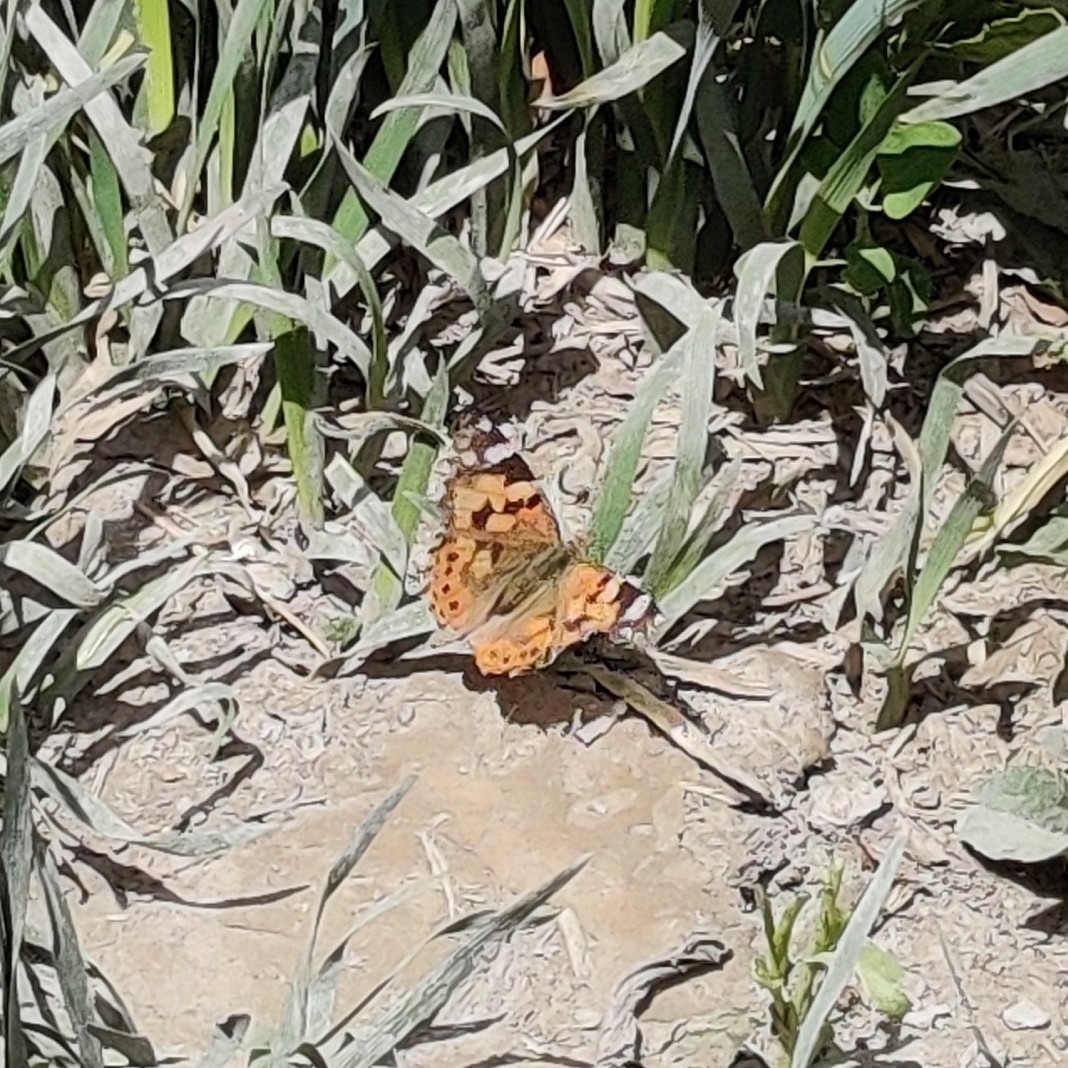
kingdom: Animalia
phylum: Arthropoda
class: Insecta
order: Lepidoptera
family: Nymphalidae
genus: Vanessa
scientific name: Vanessa cardui
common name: Painted lady
